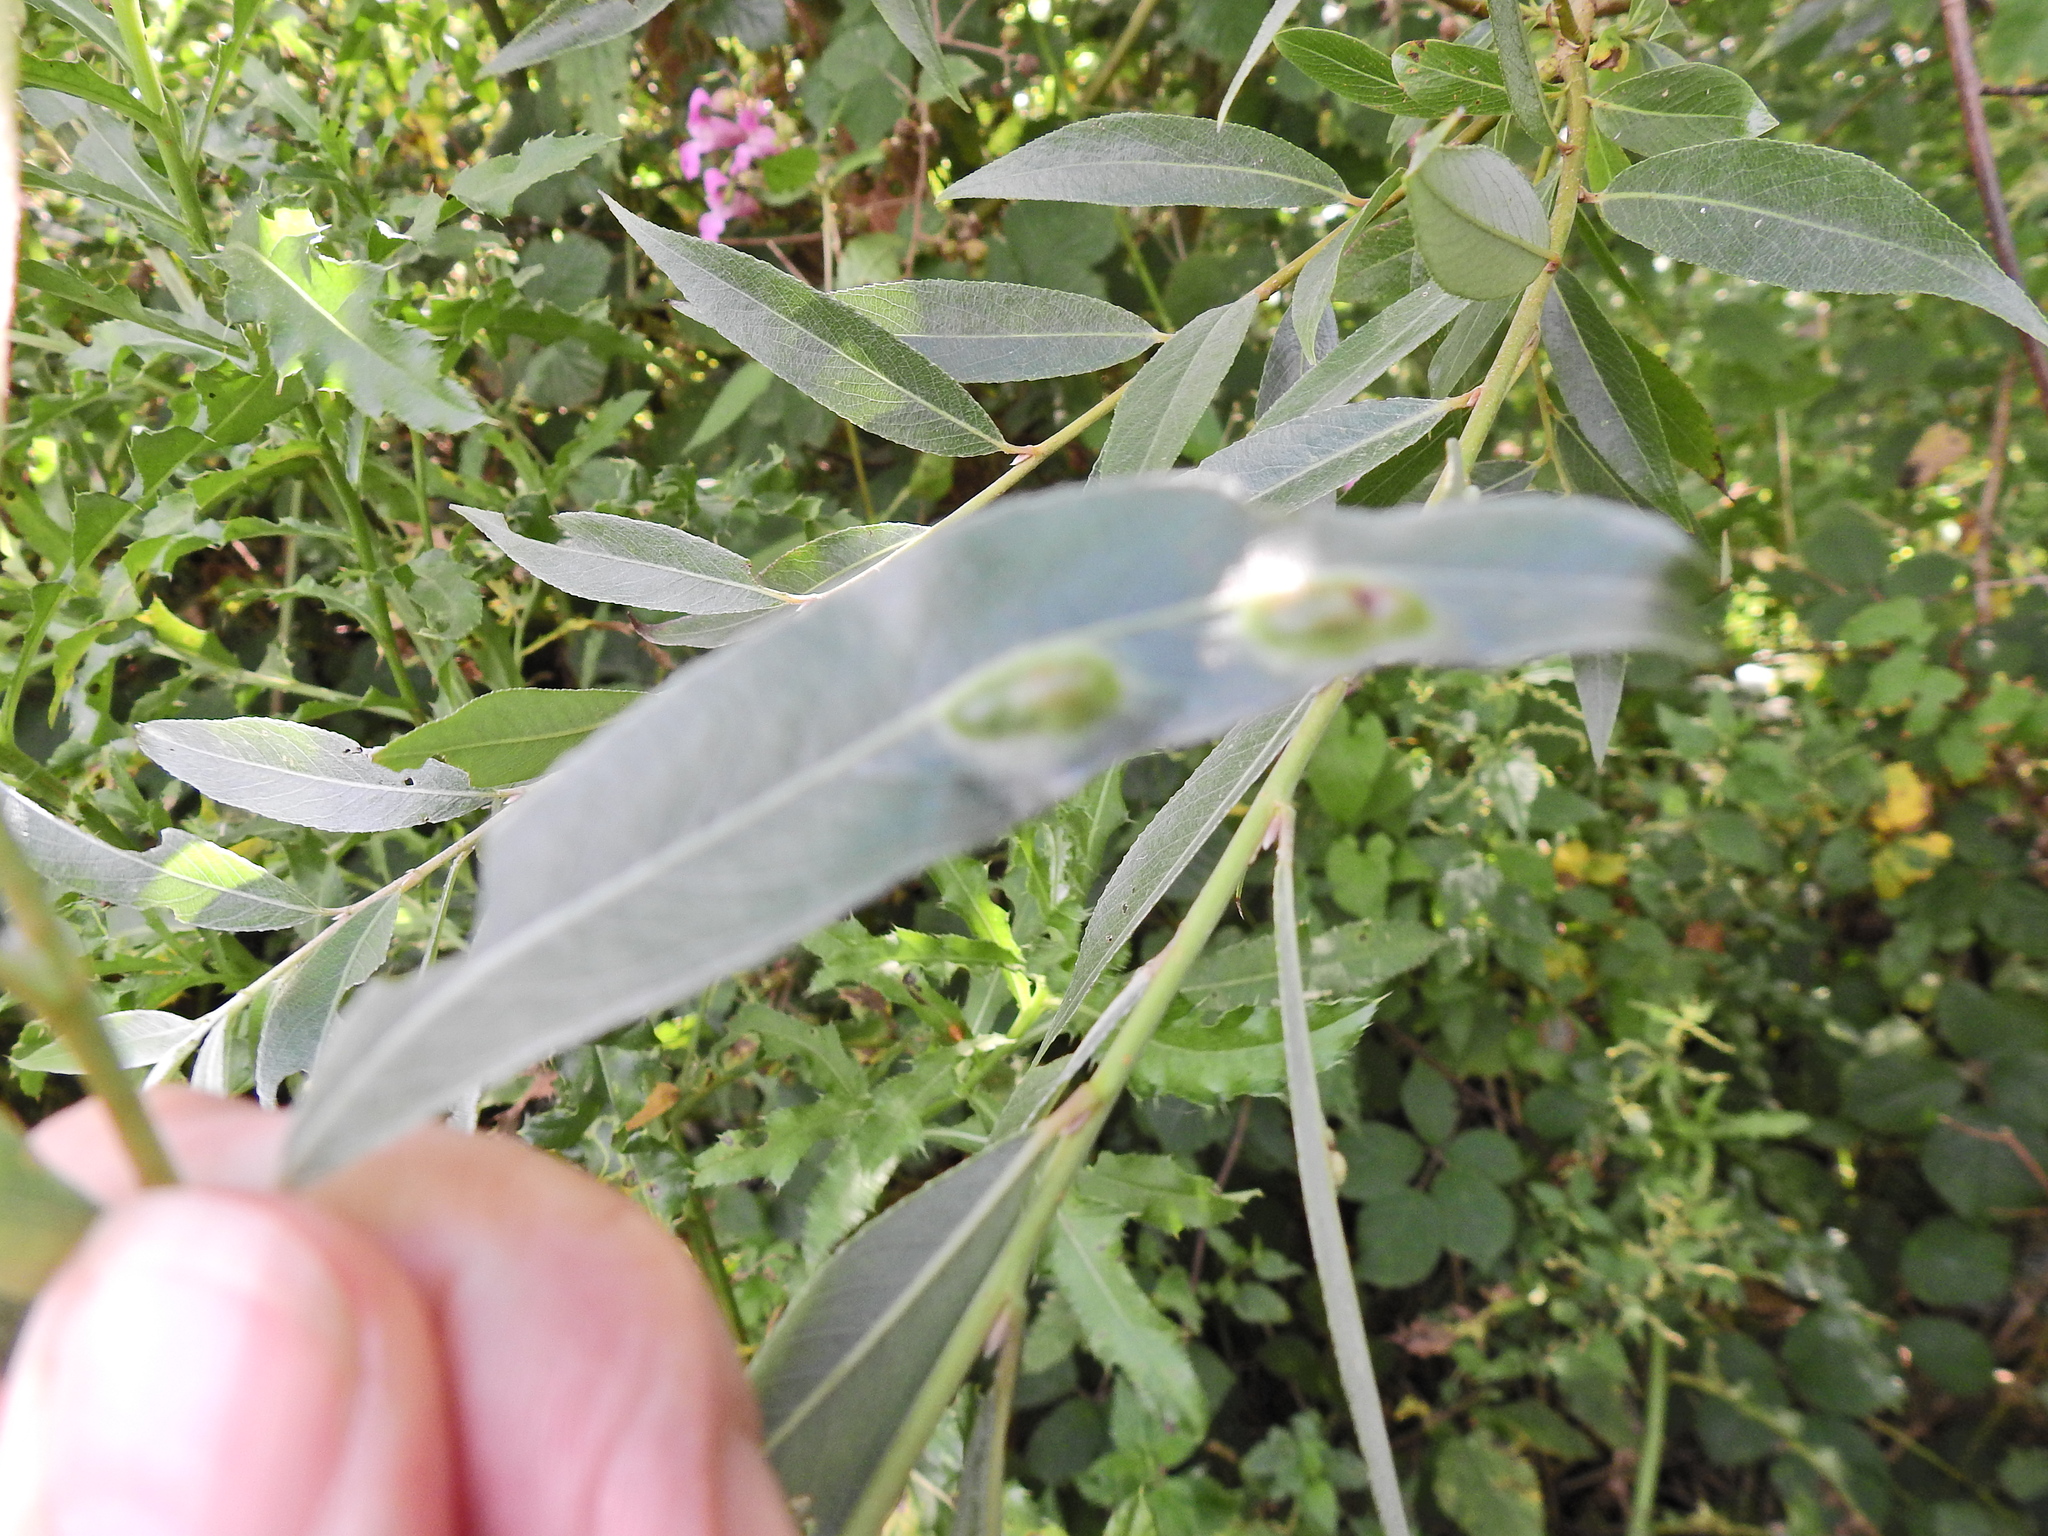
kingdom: Animalia
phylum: Arthropoda
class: Insecta
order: Hymenoptera
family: Tenthredinidae
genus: Pontania
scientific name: Pontania proxima
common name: Common sawfly
